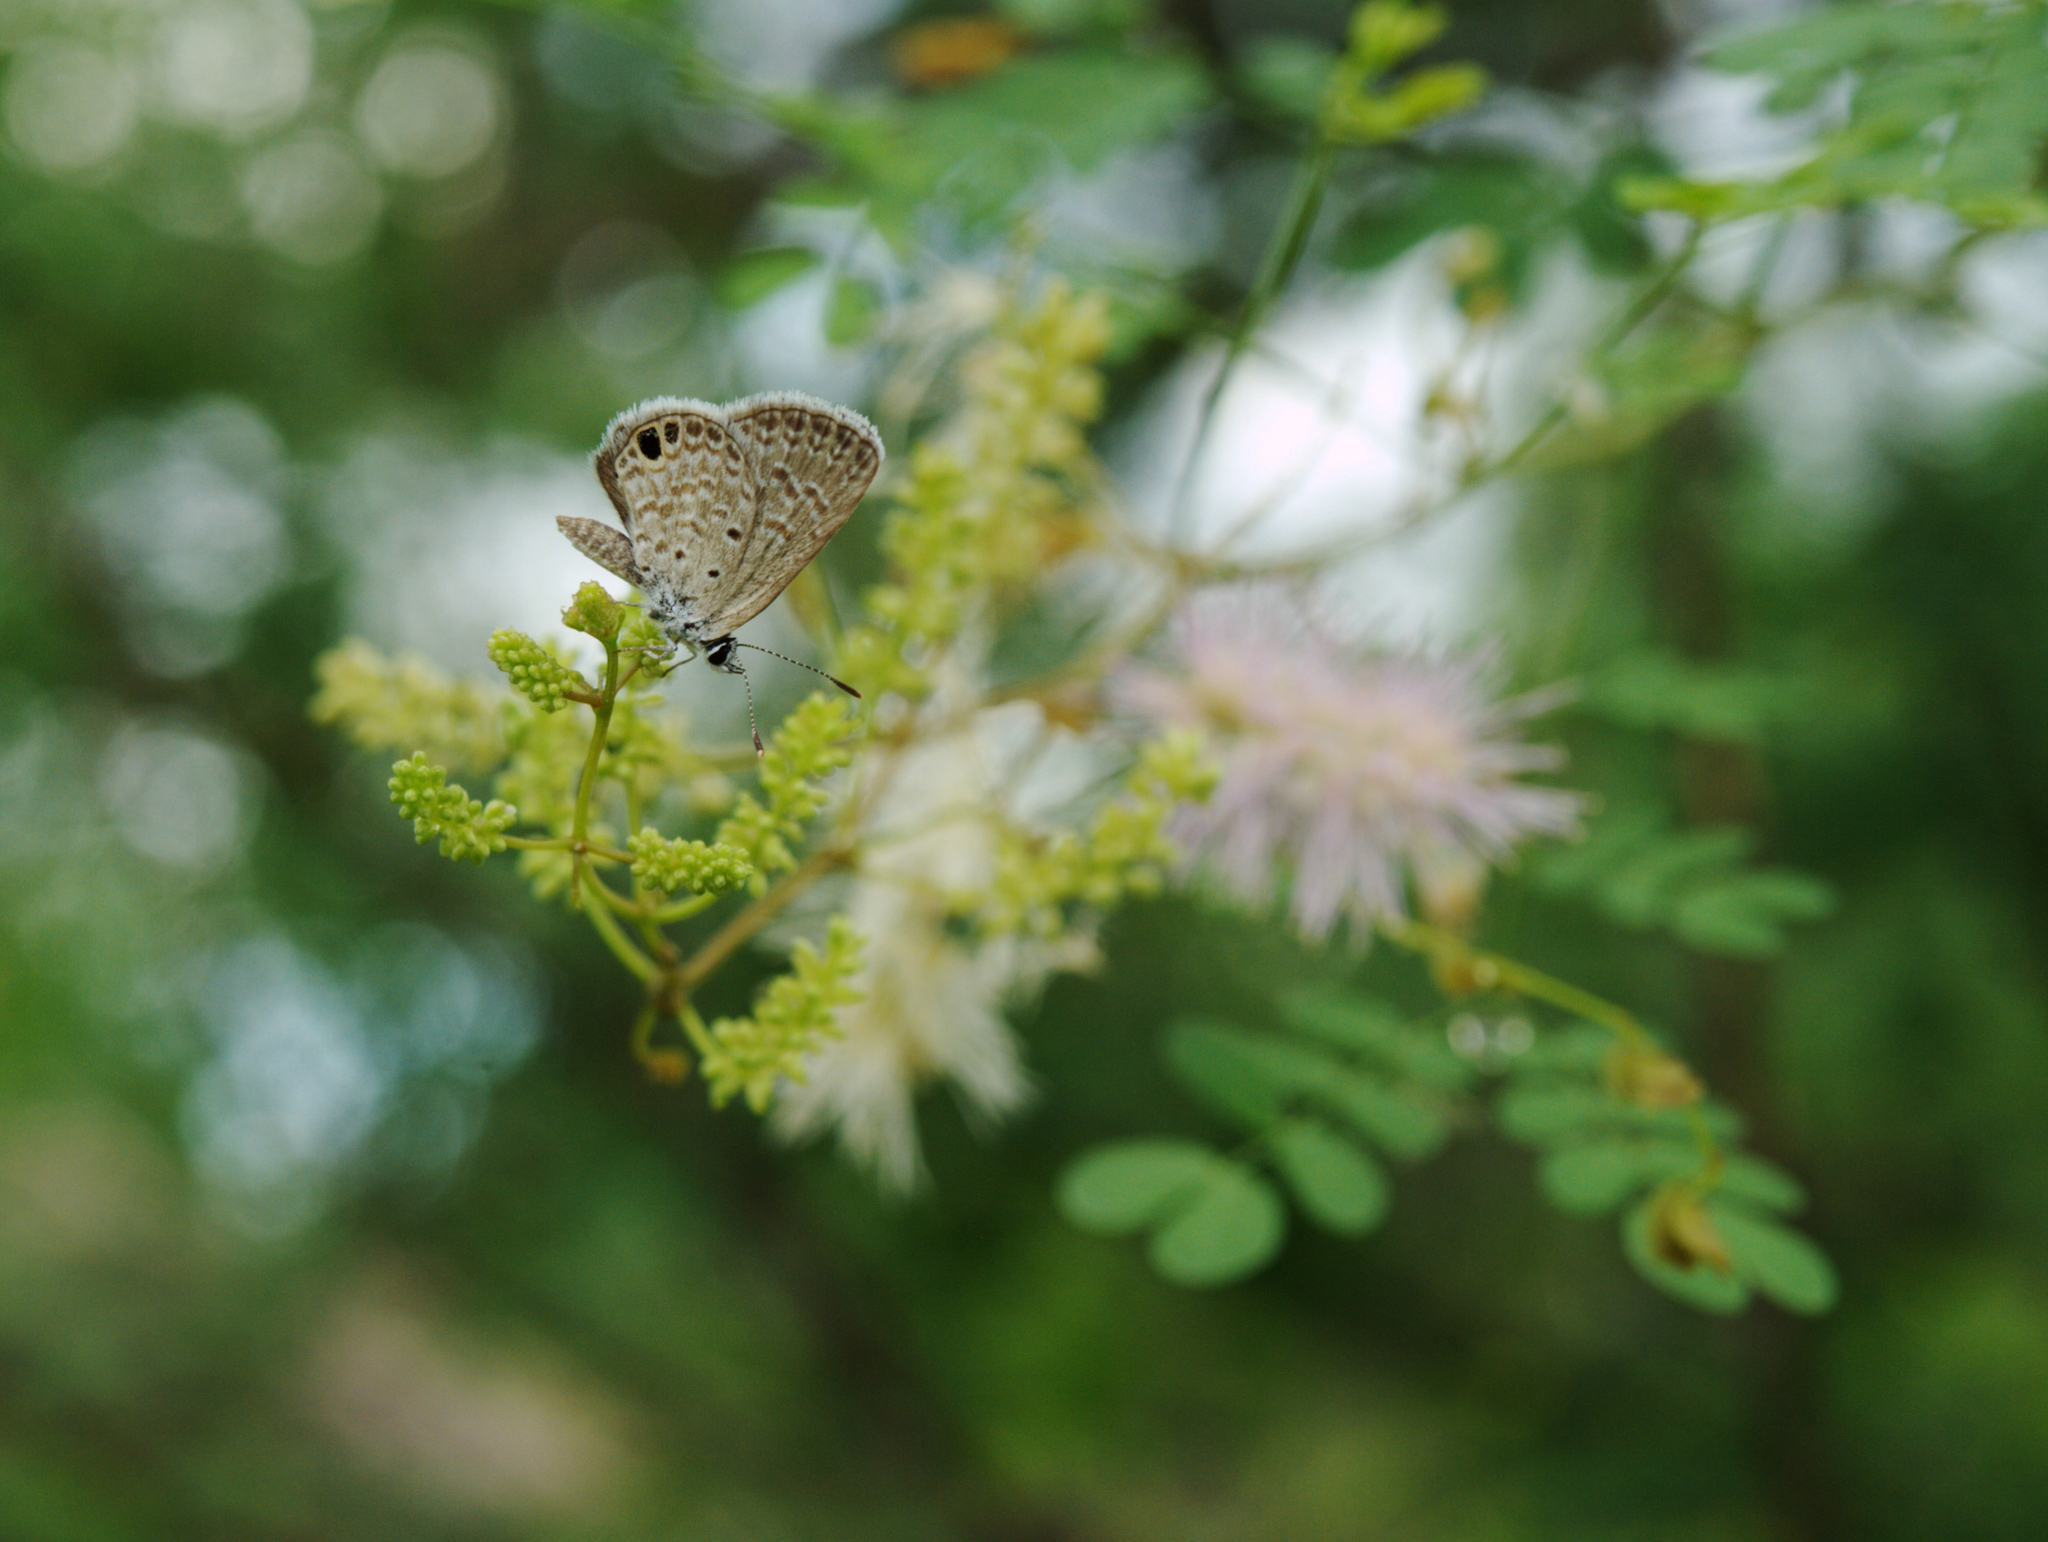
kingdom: Animalia
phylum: Arthropoda
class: Insecta
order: Lepidoptera
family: Lycaenidae
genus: Hemiargus
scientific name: Hemiargus ceraunus
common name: Ceraunus blue
